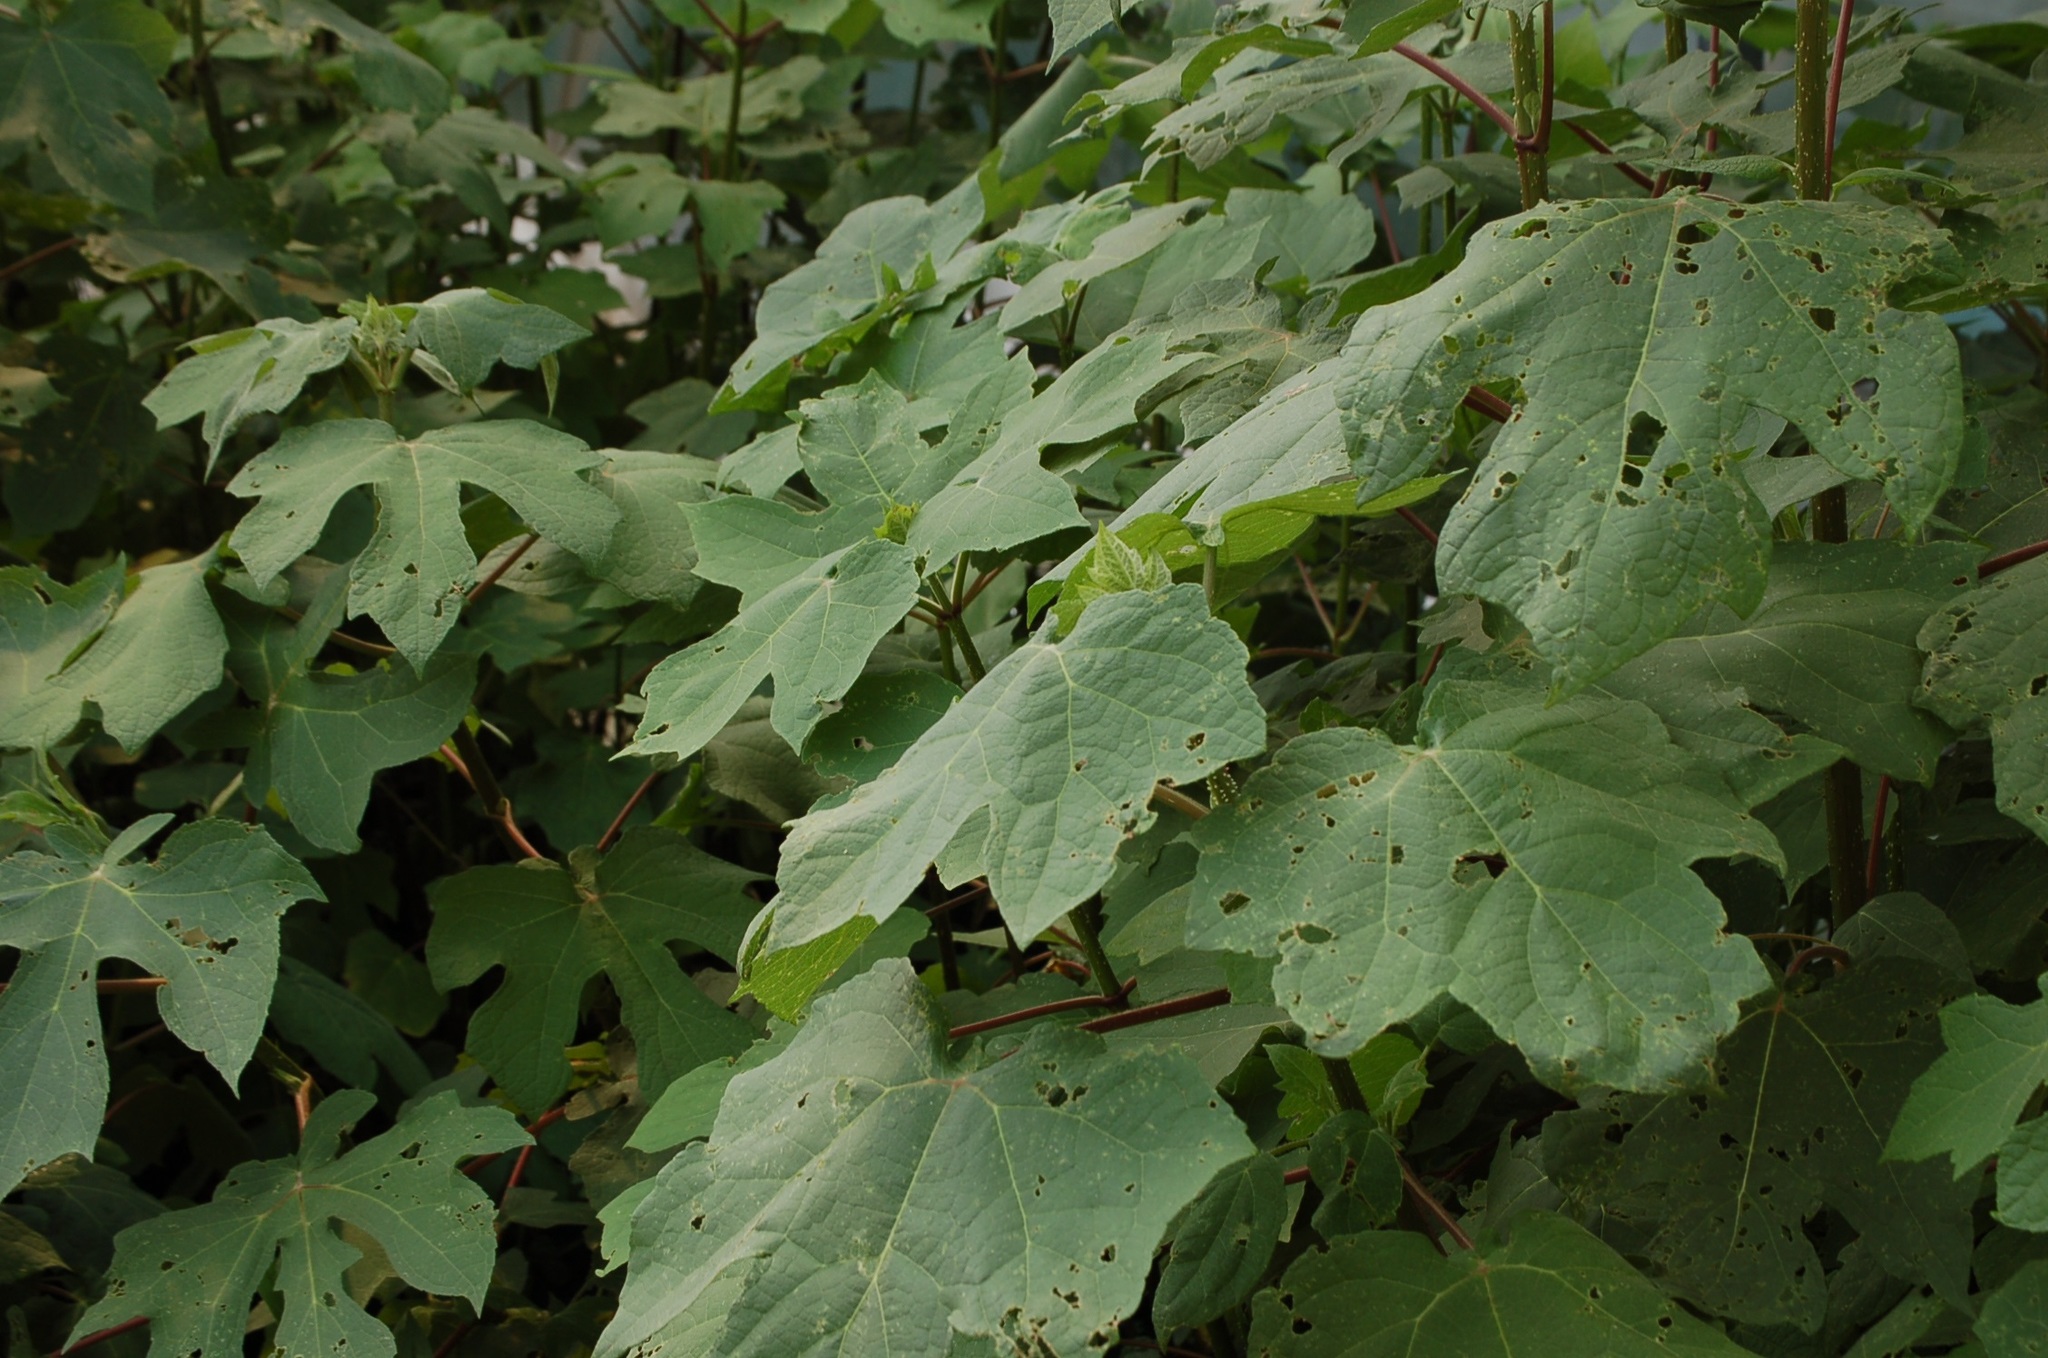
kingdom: Plantae
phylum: Tracheophyta
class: Magnoliopsida
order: Asterales
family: Asteraceae
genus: Montanoa
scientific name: Montanoa hibiscifolia
